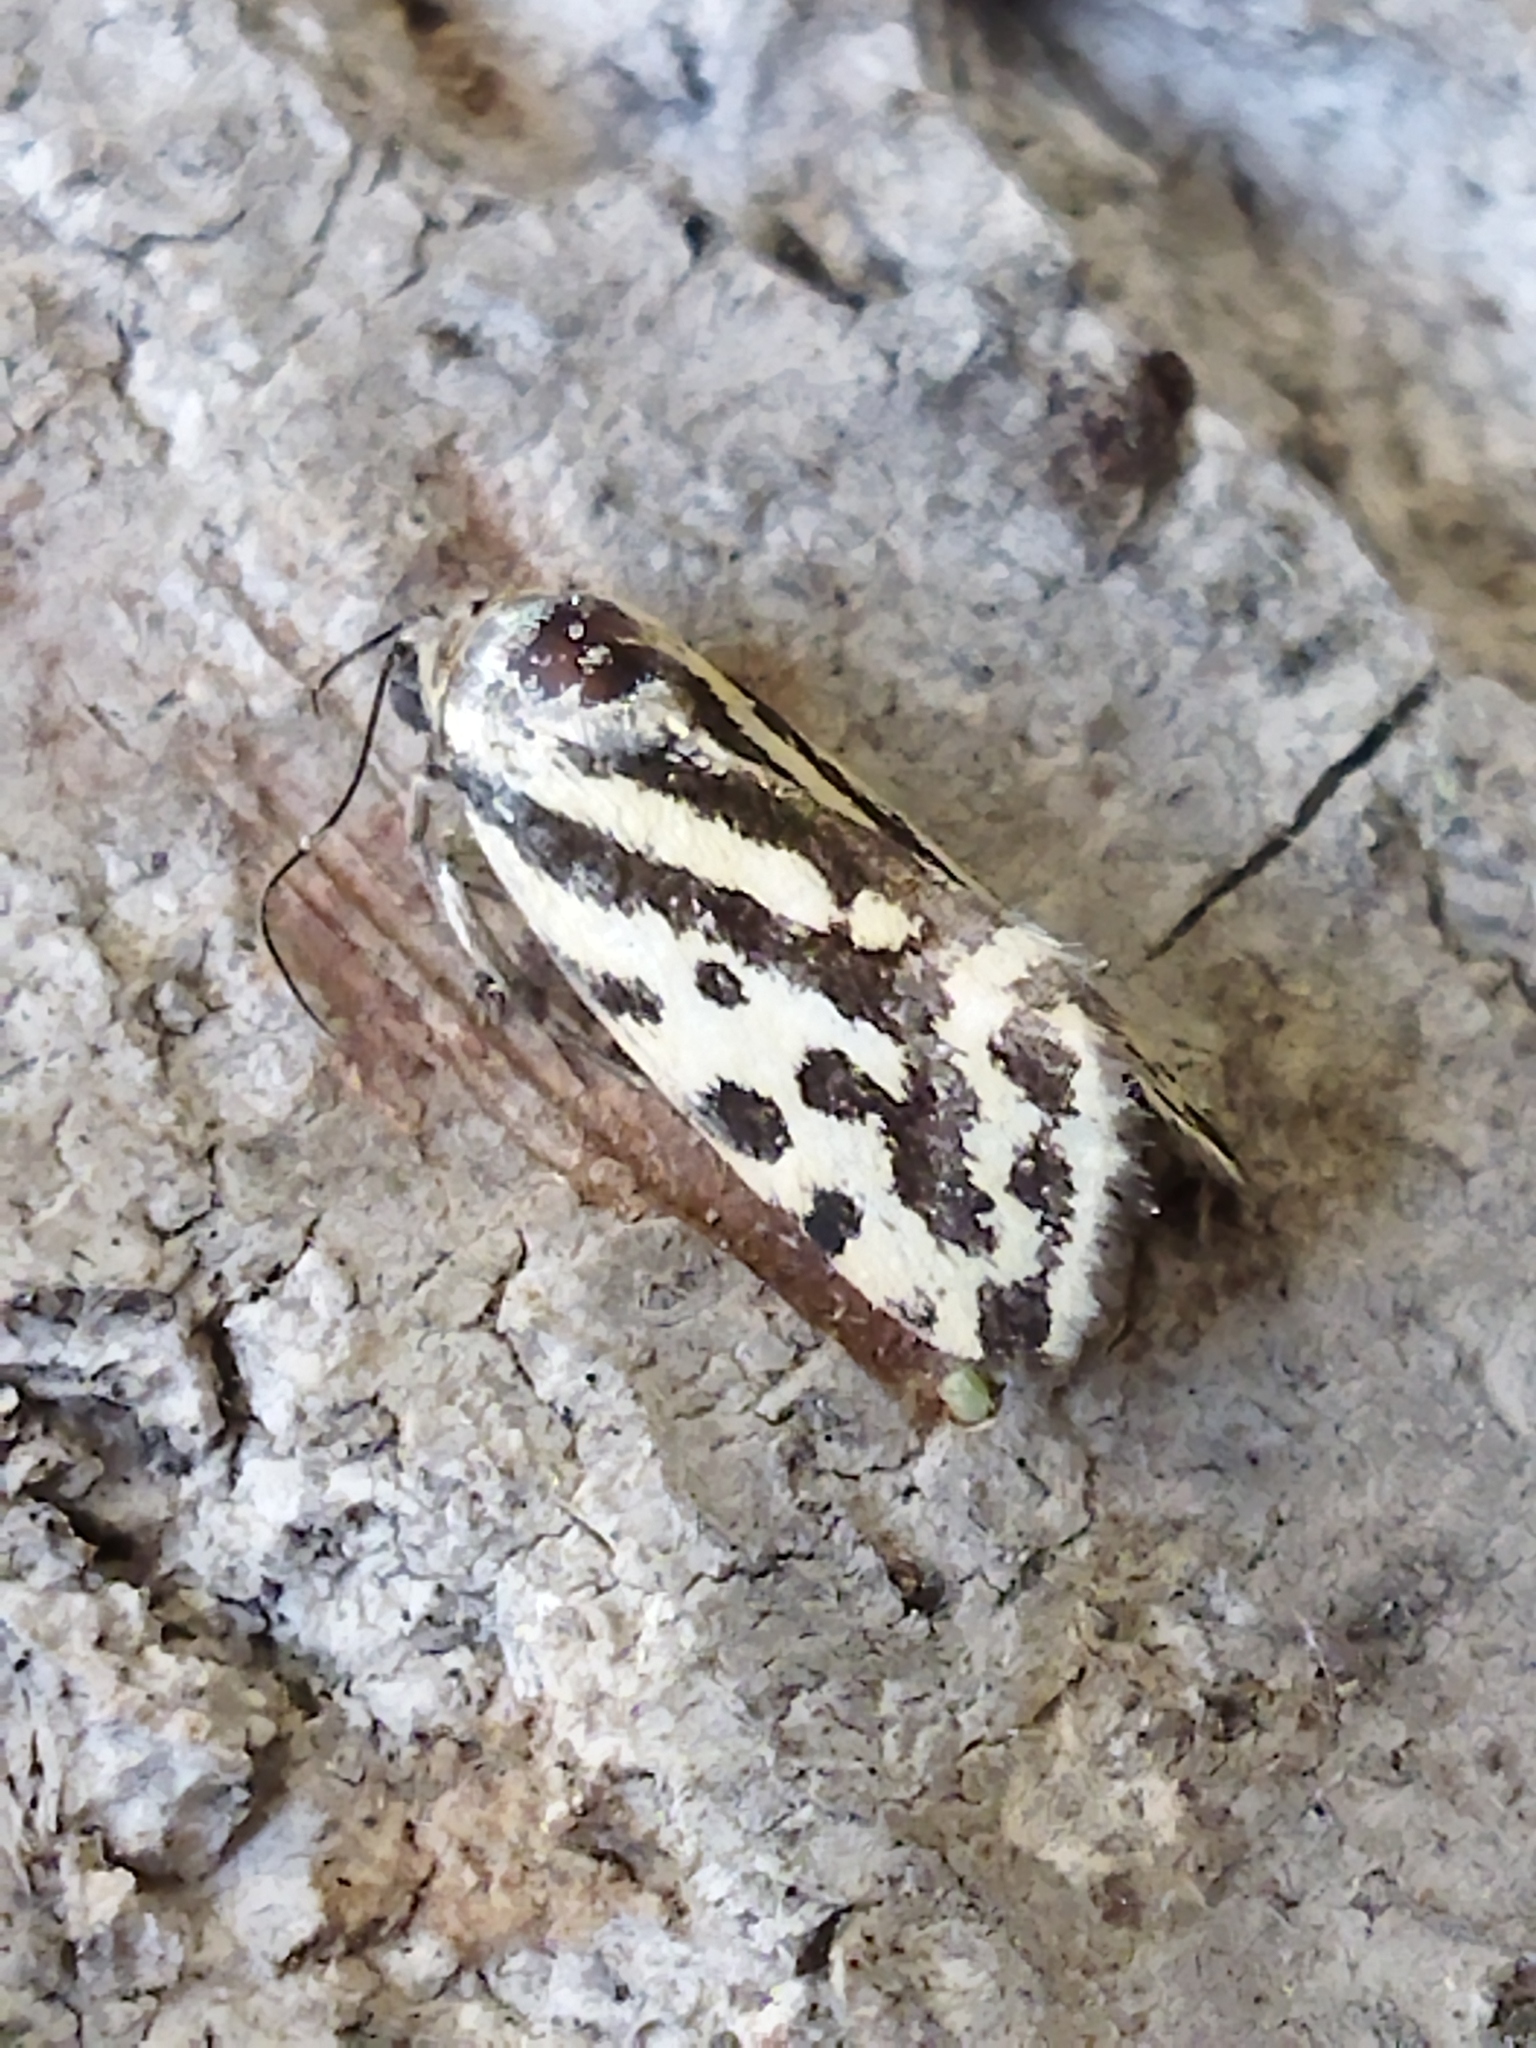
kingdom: Animalia
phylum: Arthropoda
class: Insecta
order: Lepidoptera
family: Noctuidae
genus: Acontia
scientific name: Acontia trabealis
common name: Spotted sulphur
